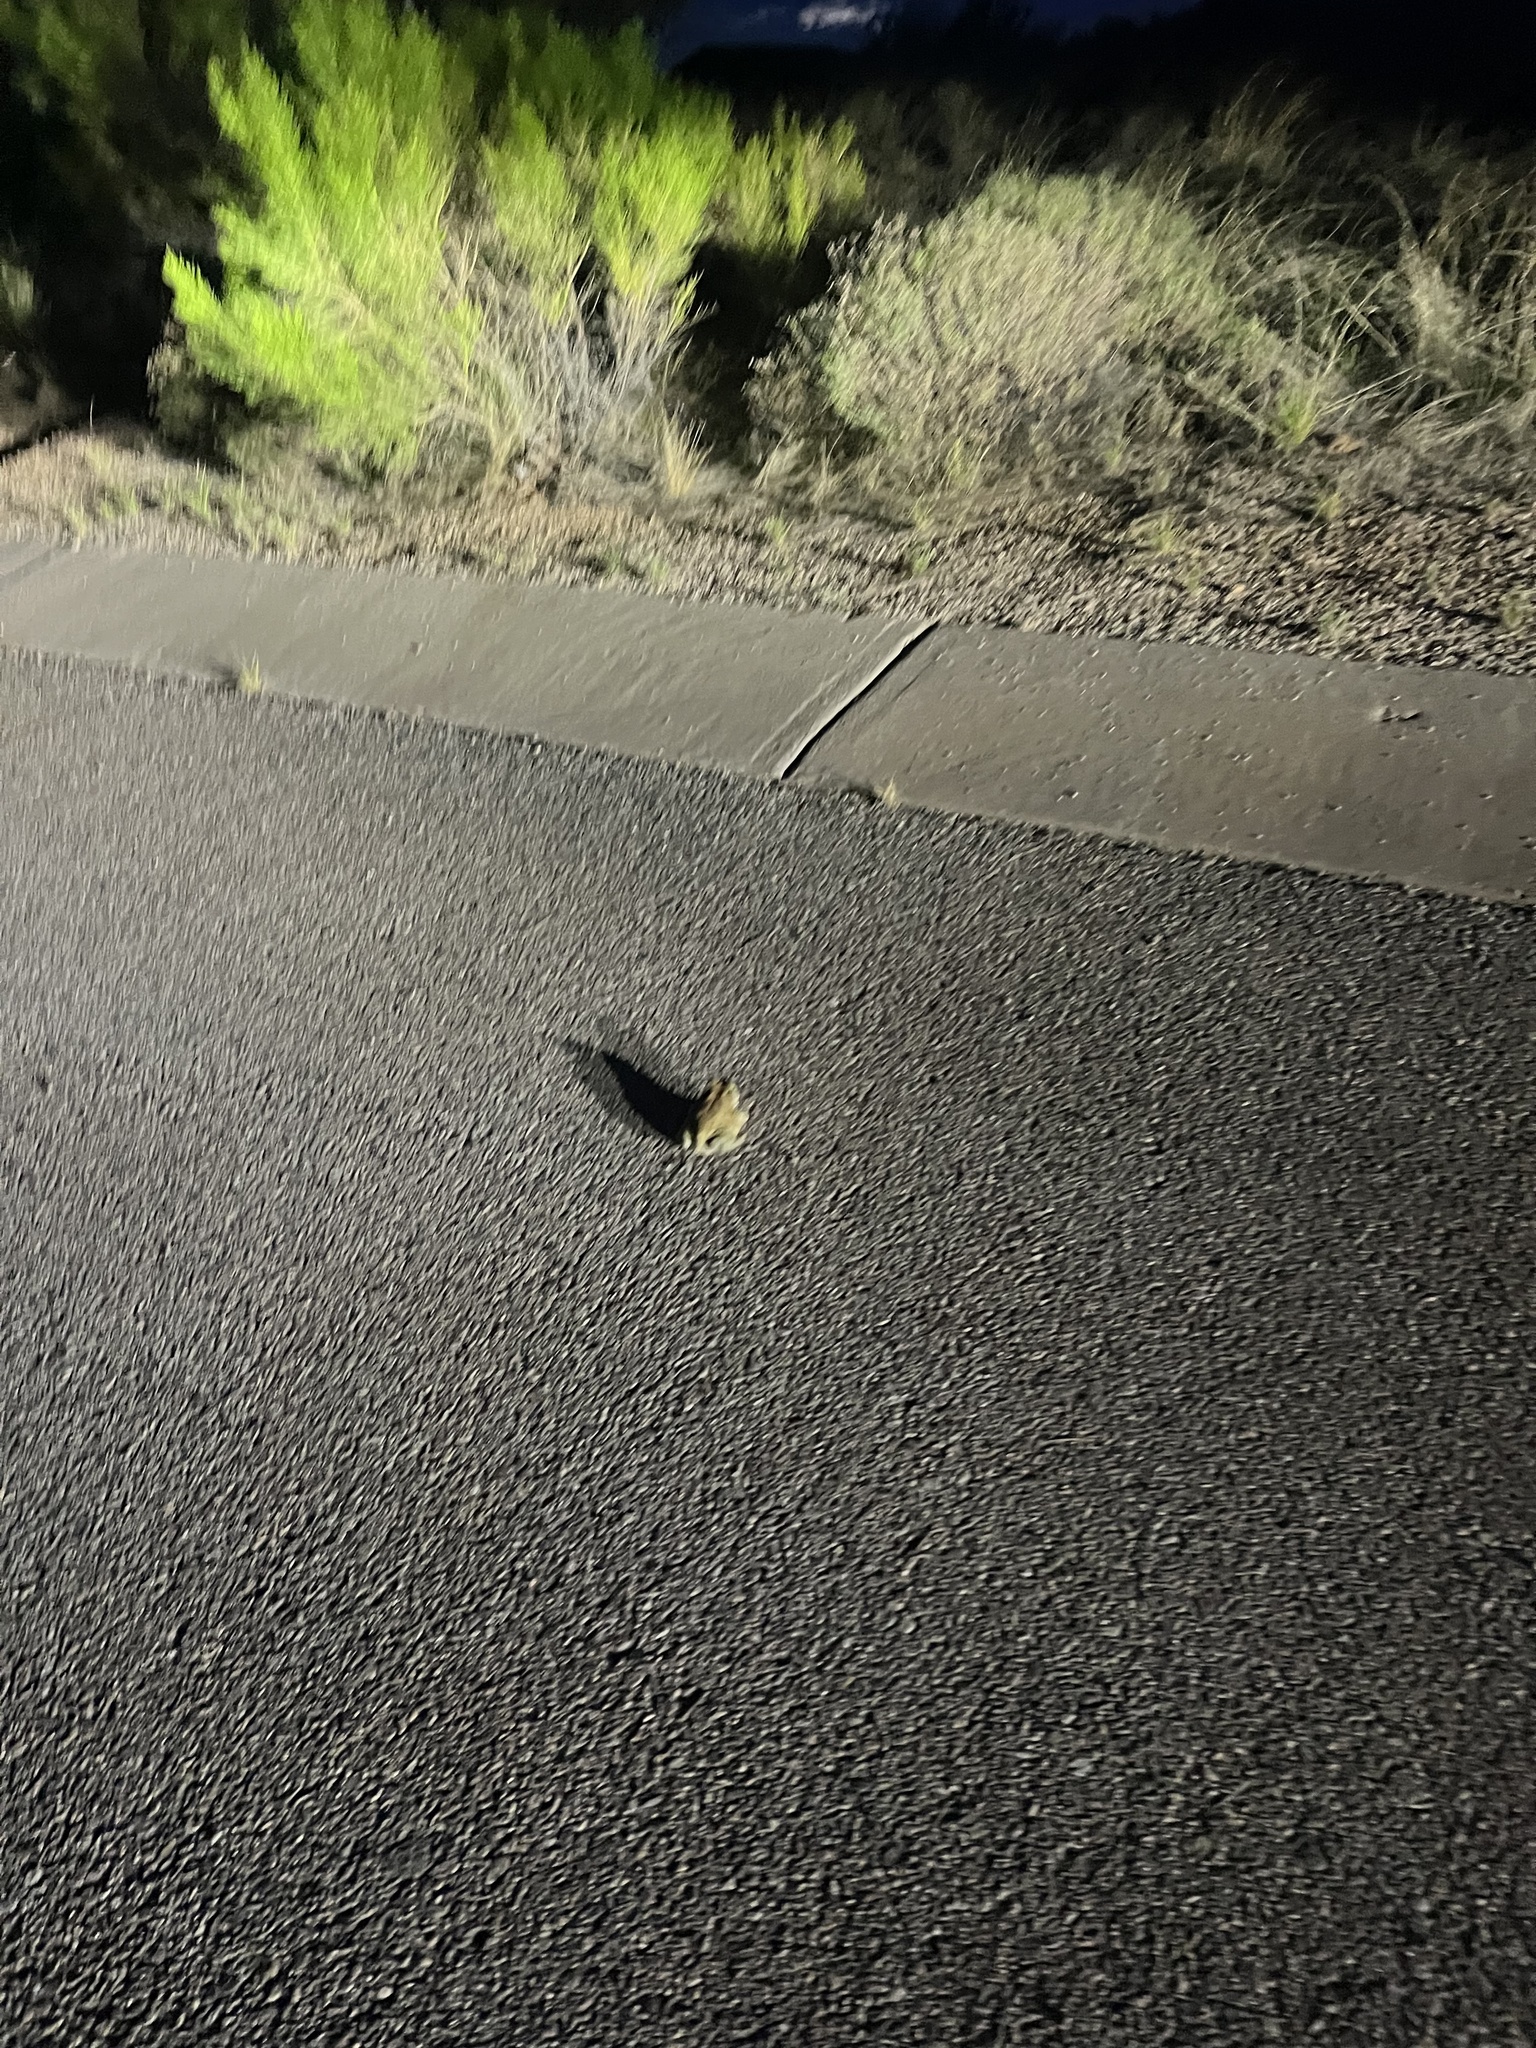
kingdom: Animalia
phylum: Chordata
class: Amphibia
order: Anura
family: Bufonidae
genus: Incilius
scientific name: Incilius alvarius
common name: Sonoran desert toad
